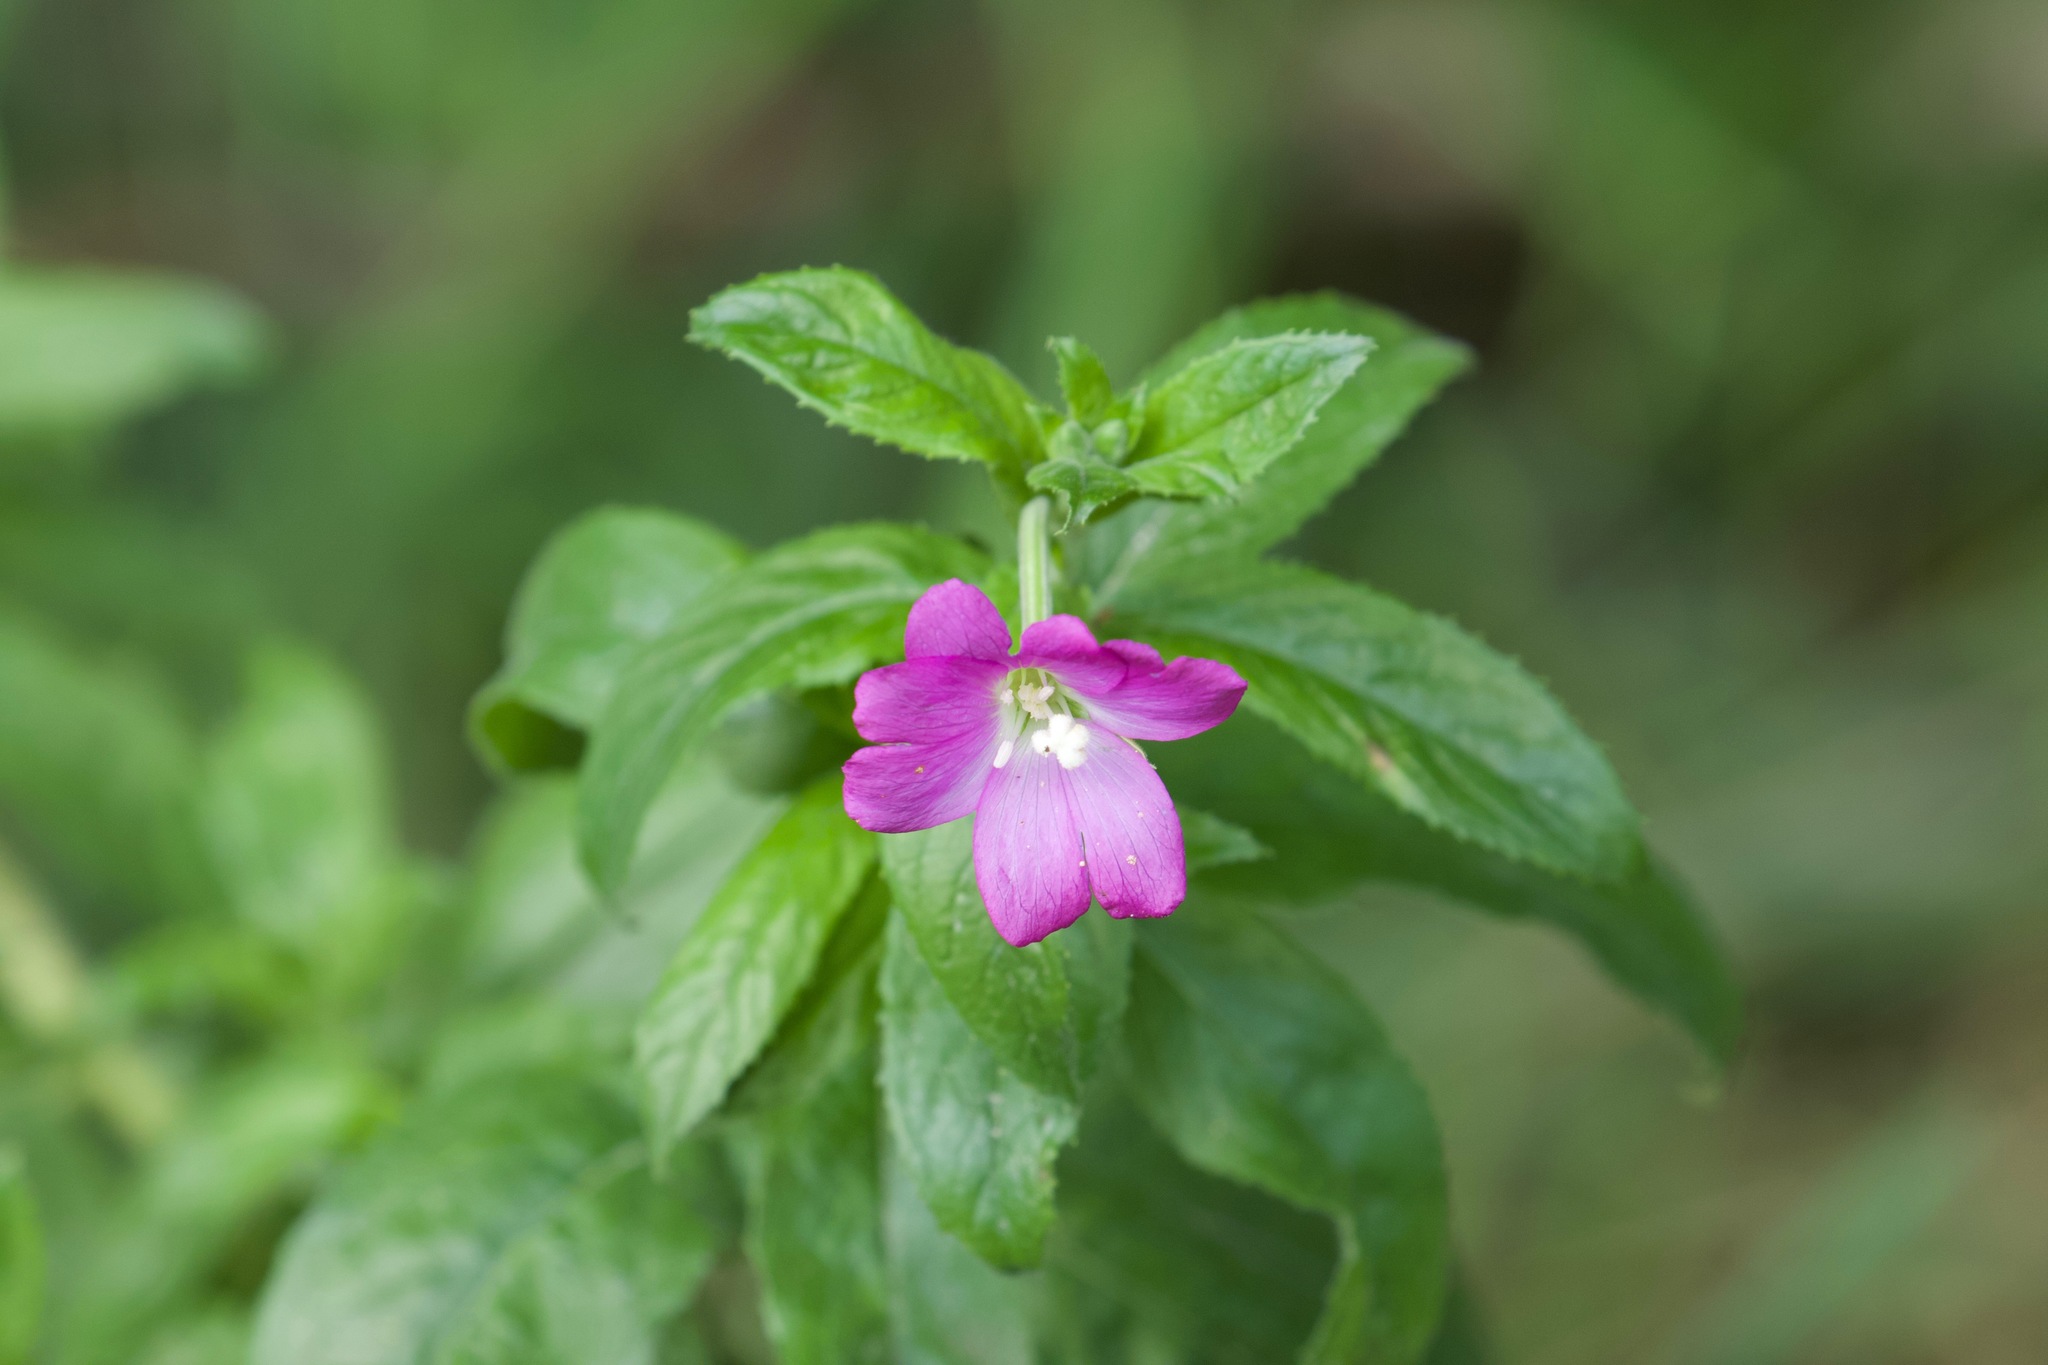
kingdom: Plantae
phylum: Tracheophyta
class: Magnoliopsida
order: Myrtales
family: Onagraceae
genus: Epilobium
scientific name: Epilobium hirsutum
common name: Great willowherb
